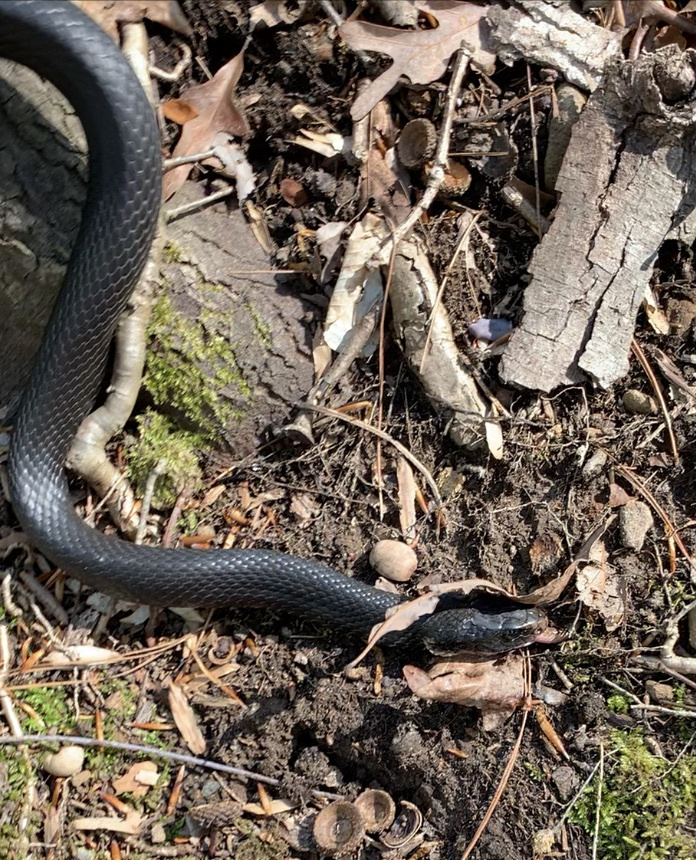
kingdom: Animalia
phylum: Chordata
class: Squamata
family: Colubridae
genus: Coluber
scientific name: Coluber constrictor
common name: Eastern racer
